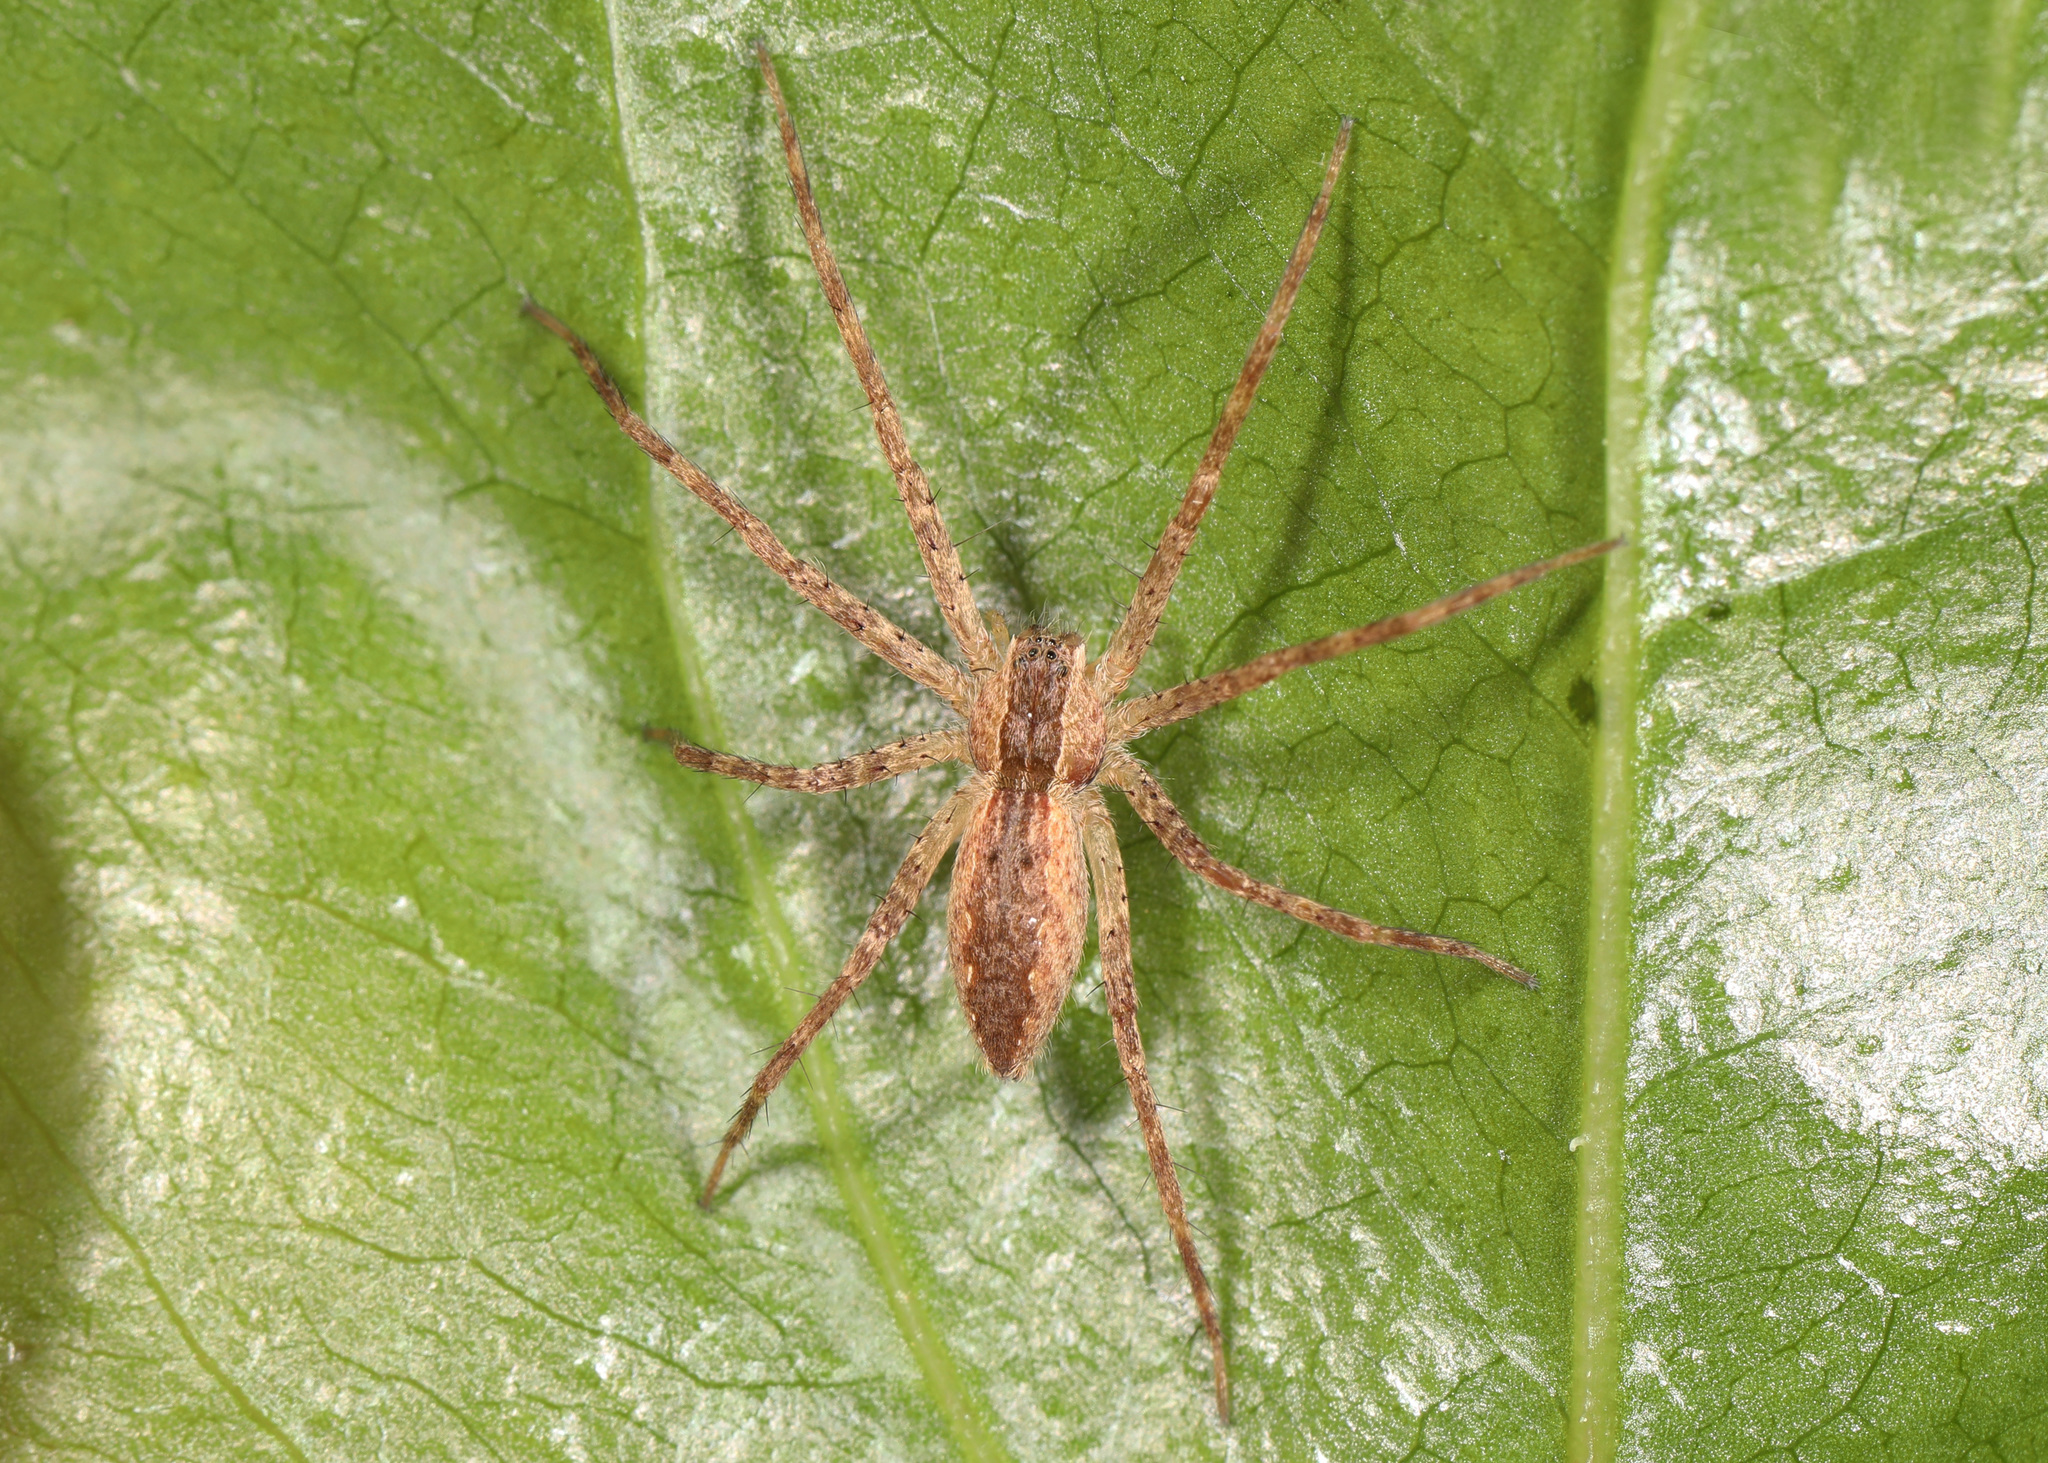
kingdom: Animalia
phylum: Arthropoda
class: Arachnida
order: Araneae
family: Pisauridae
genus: Pisaurina
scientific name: Pisaurina mira
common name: American nursery web spider
